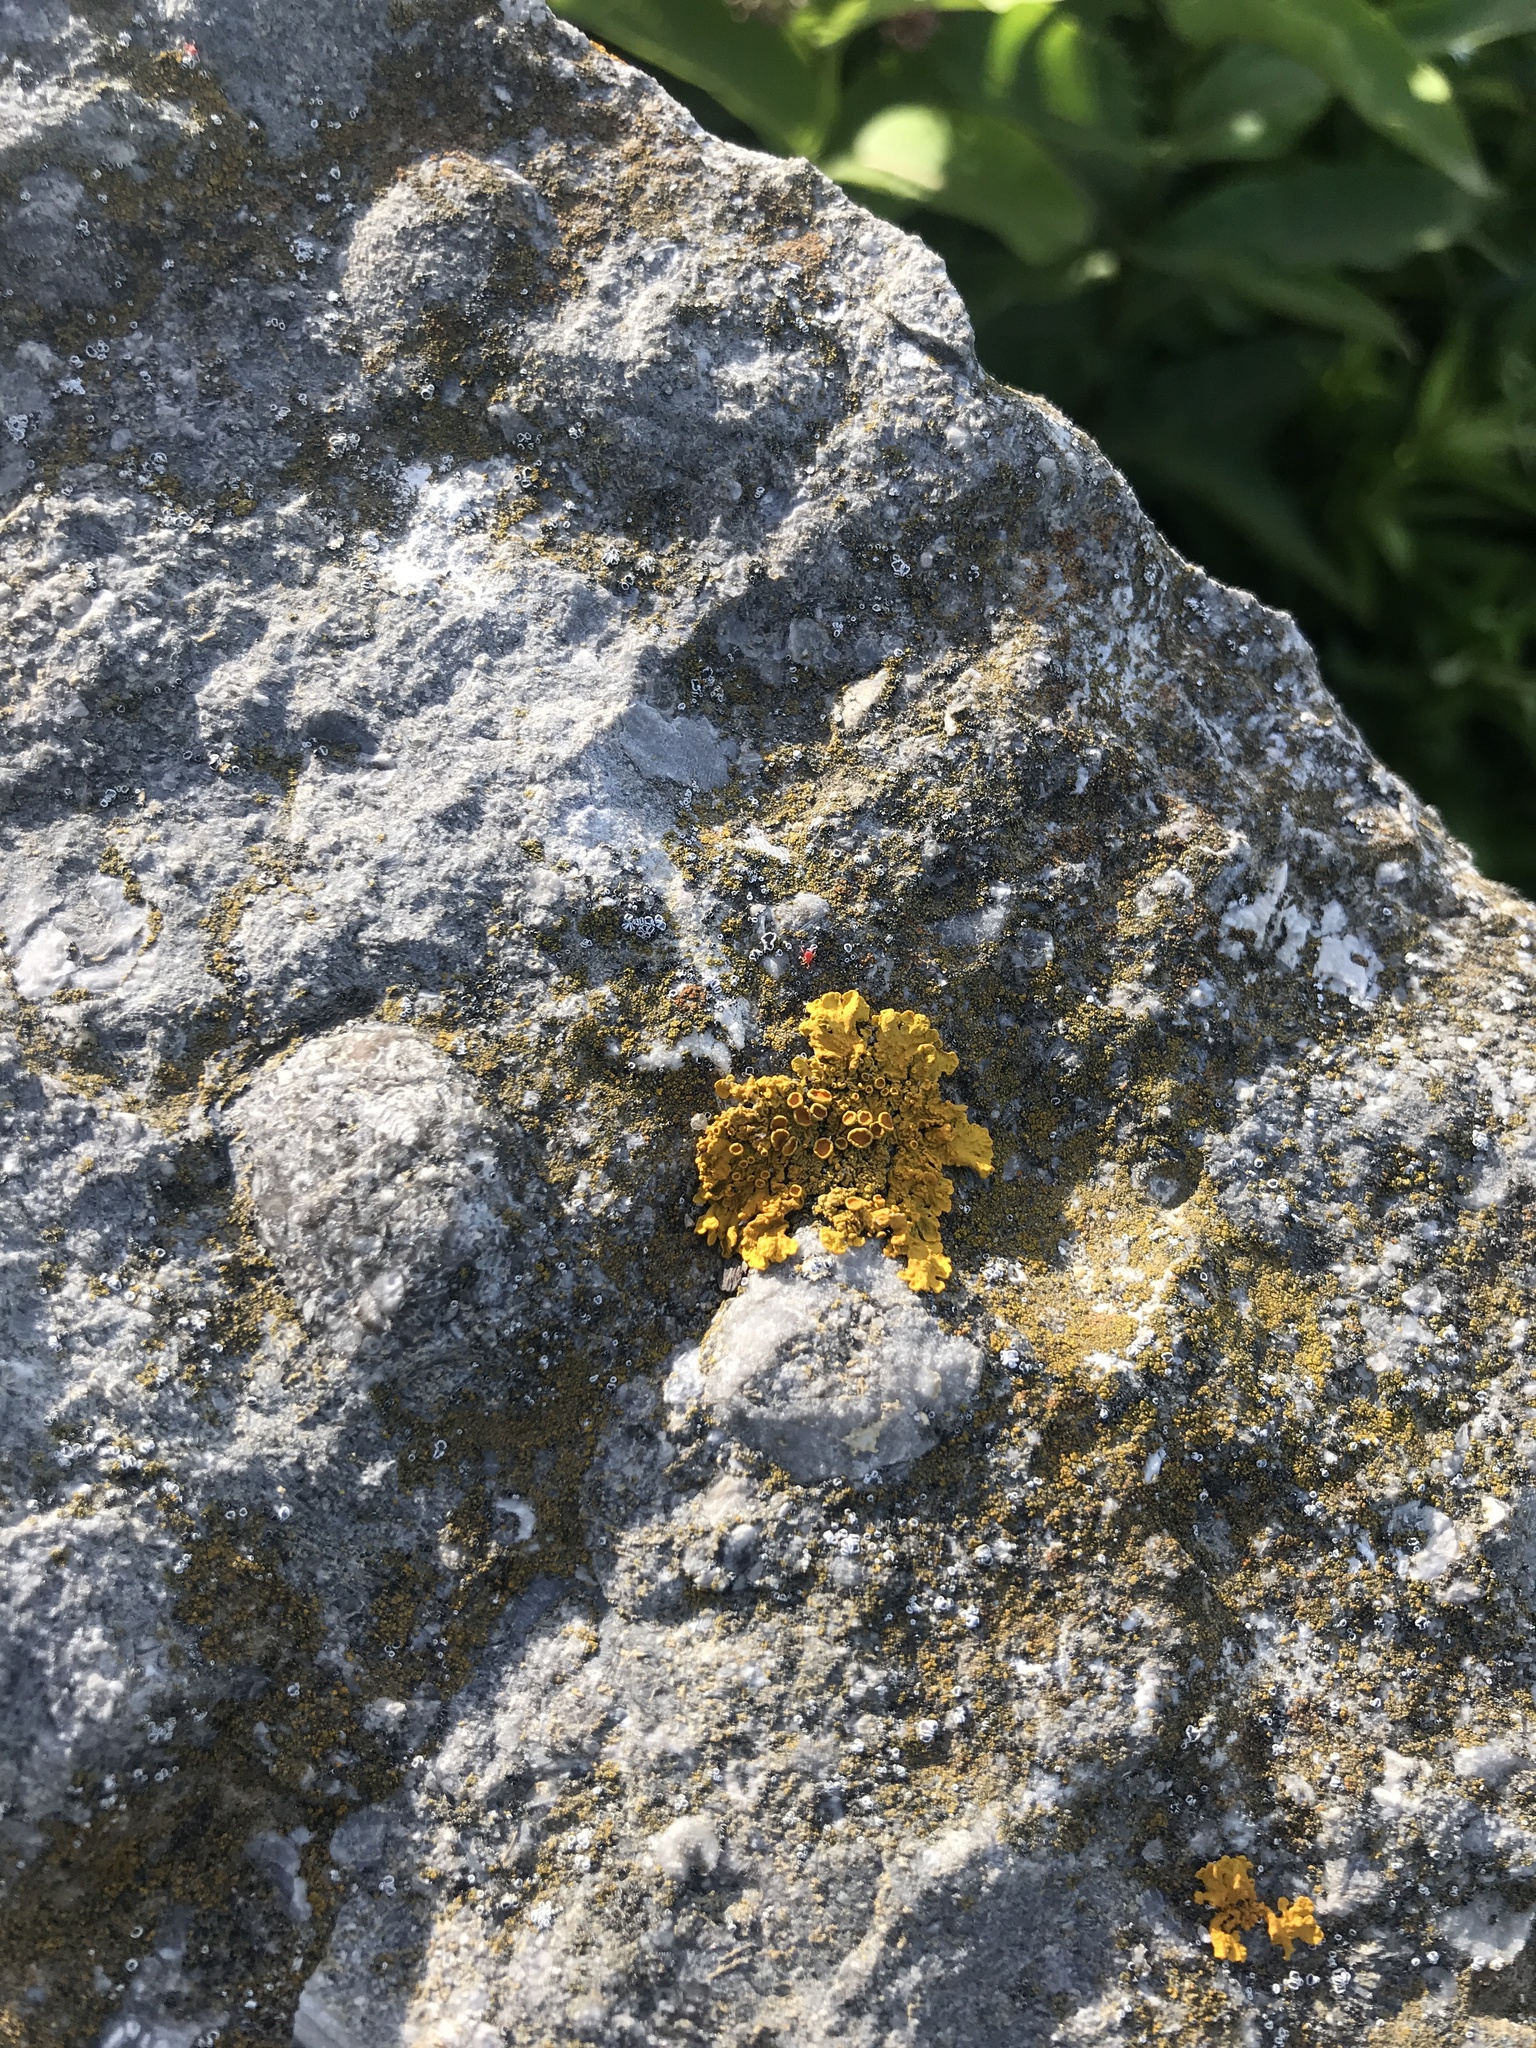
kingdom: Fungi
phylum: Ascomycota
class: Lecanoromycetes
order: Teloschistales
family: Teloschistaceae
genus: Xanthoria
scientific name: Xanthoria parietina
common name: Common orange lichen
